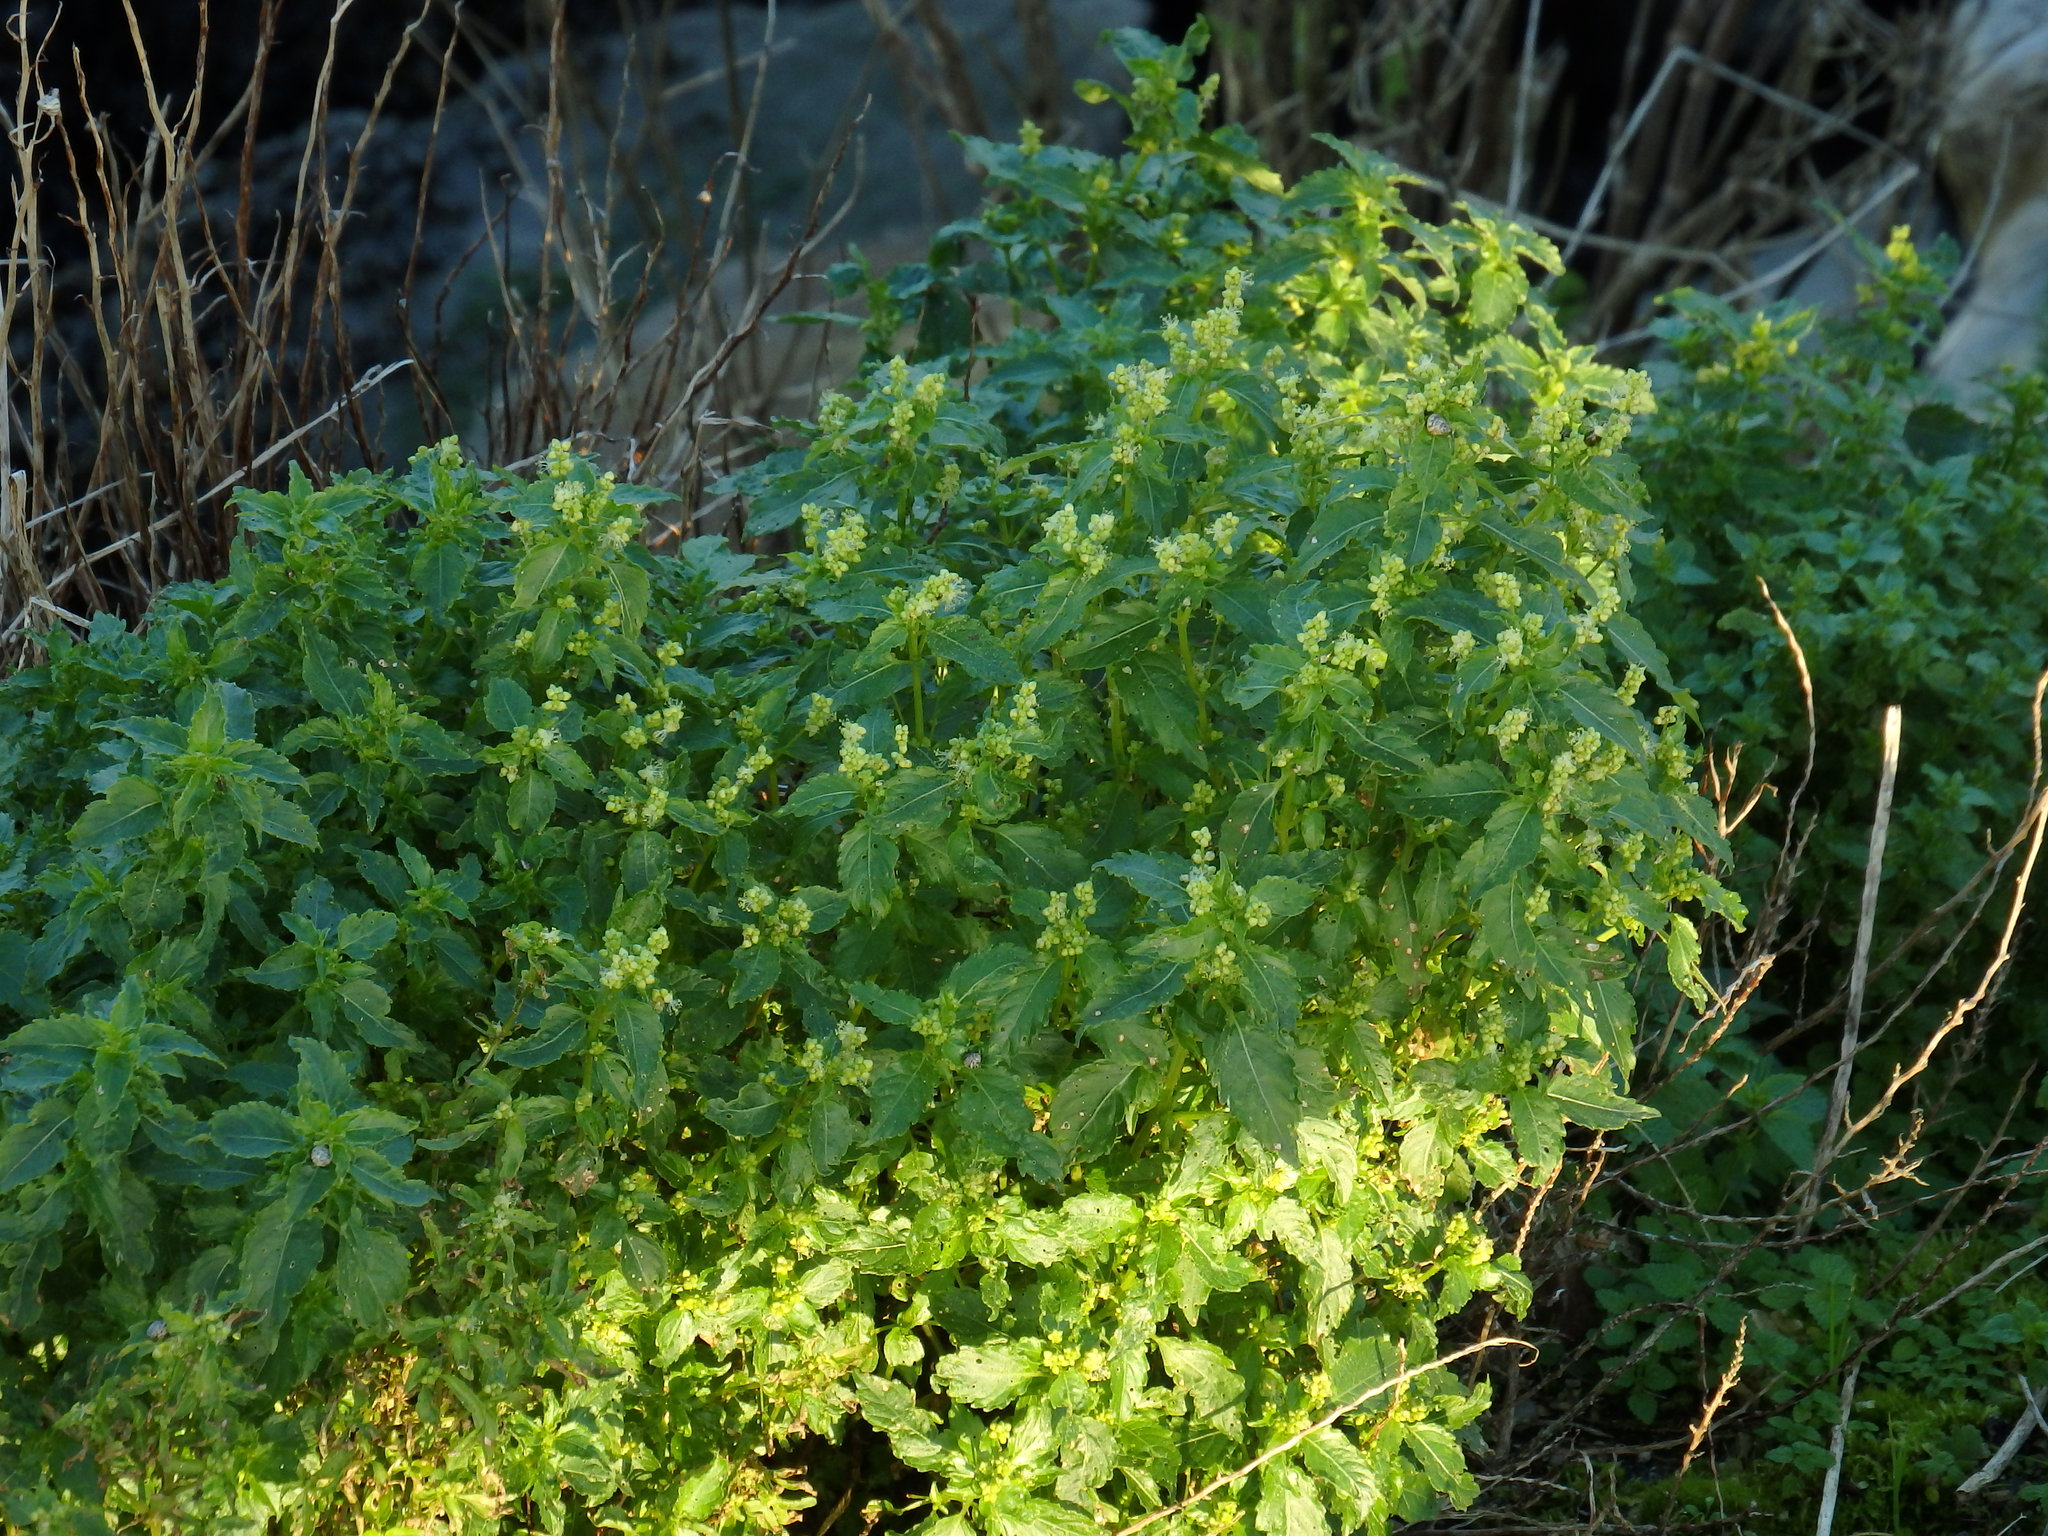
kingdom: Plantae
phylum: Tracheophyta
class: Magnoliopsida
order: Malpighiales
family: Euphorbiaceae
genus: Mercurialis
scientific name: Mercurialis annua
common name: Annual mercury
